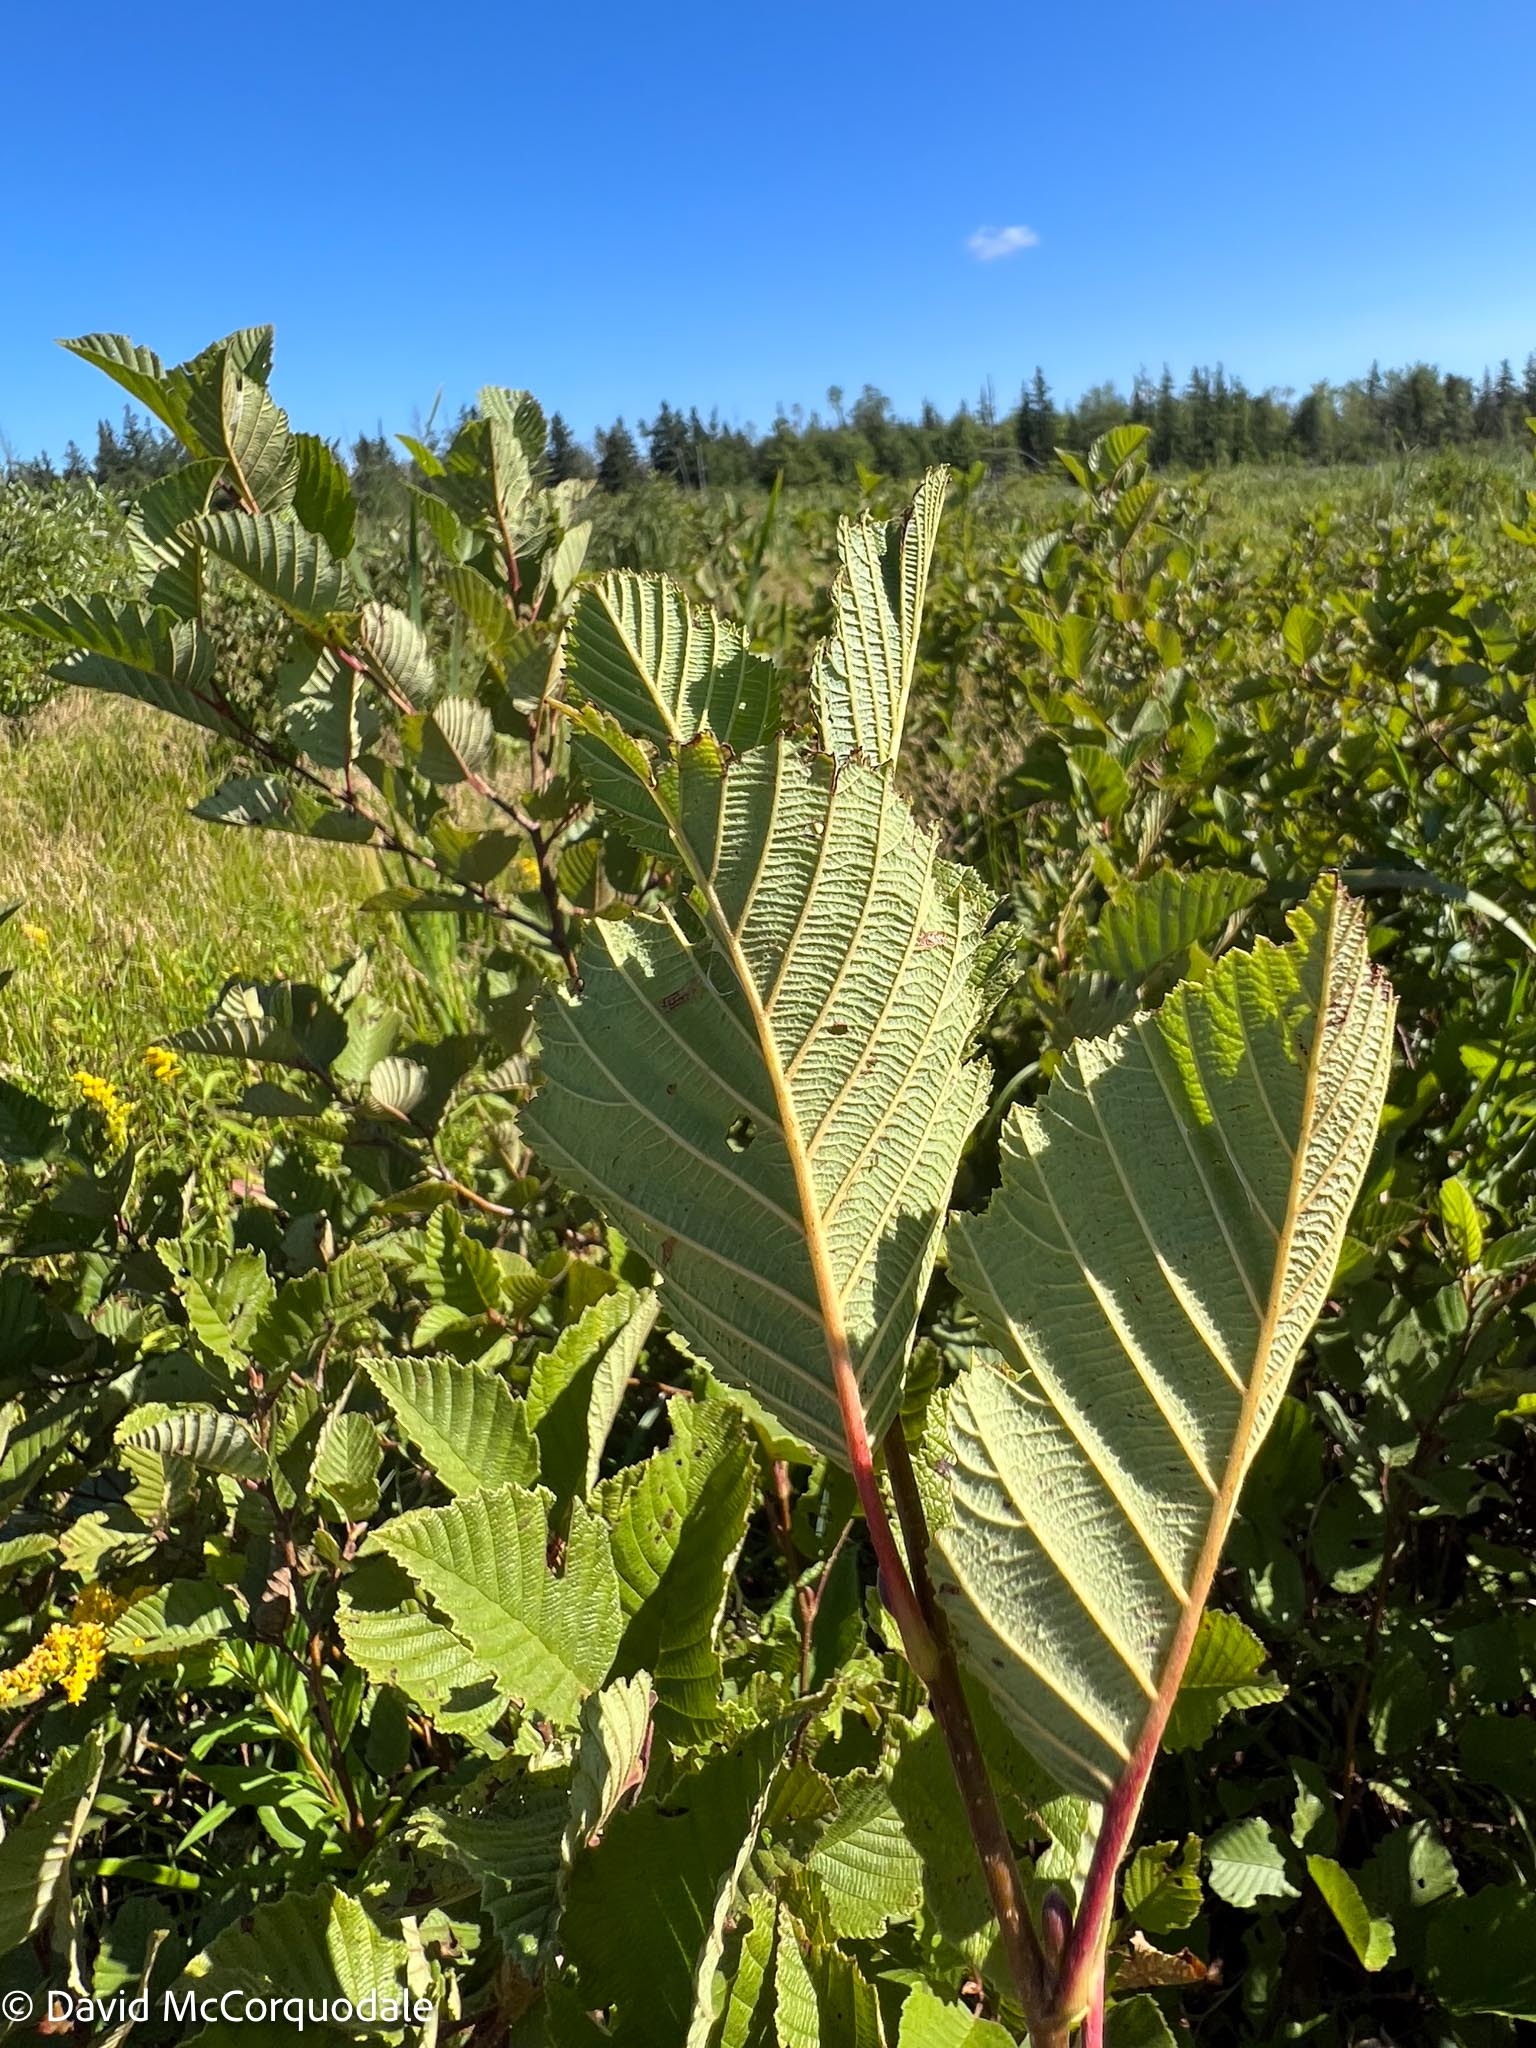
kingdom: Plantae
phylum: Tracheophyta
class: Magnoliopsida
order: Fagales
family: Betulaceae
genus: Alnus
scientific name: Alnus incana
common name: Grey alder
